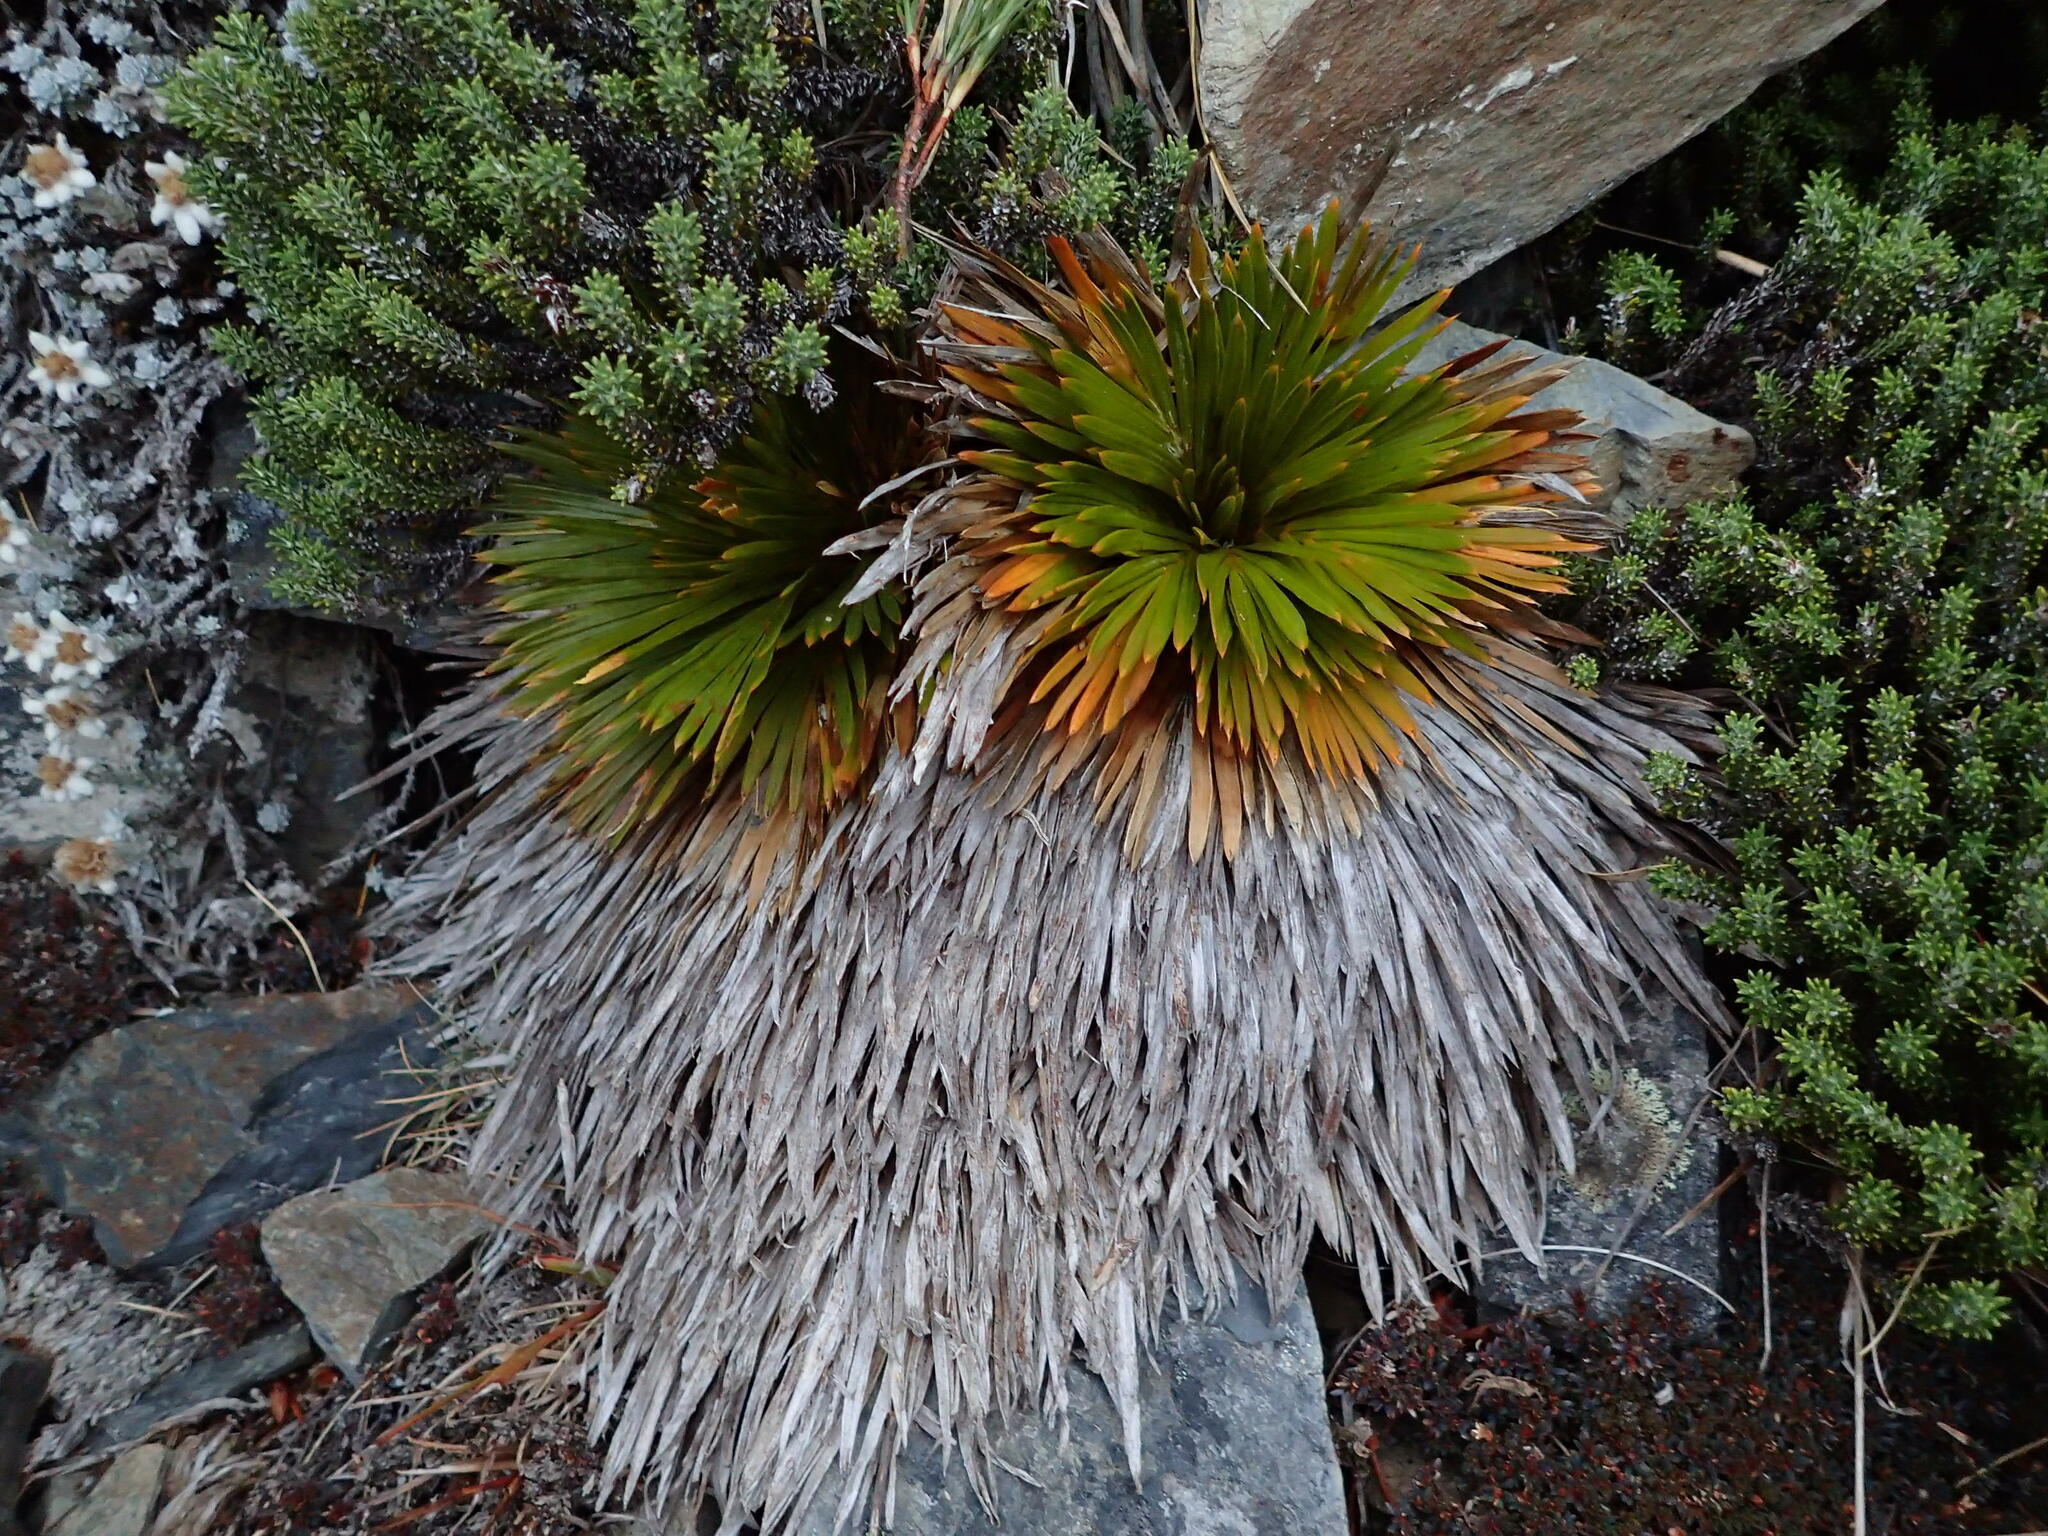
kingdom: Plantae
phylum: Tracheophyta
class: Magnoliopsida
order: Apiales
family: Apiaceae
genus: Aciphylla
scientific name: Aciphylla lecomtei
